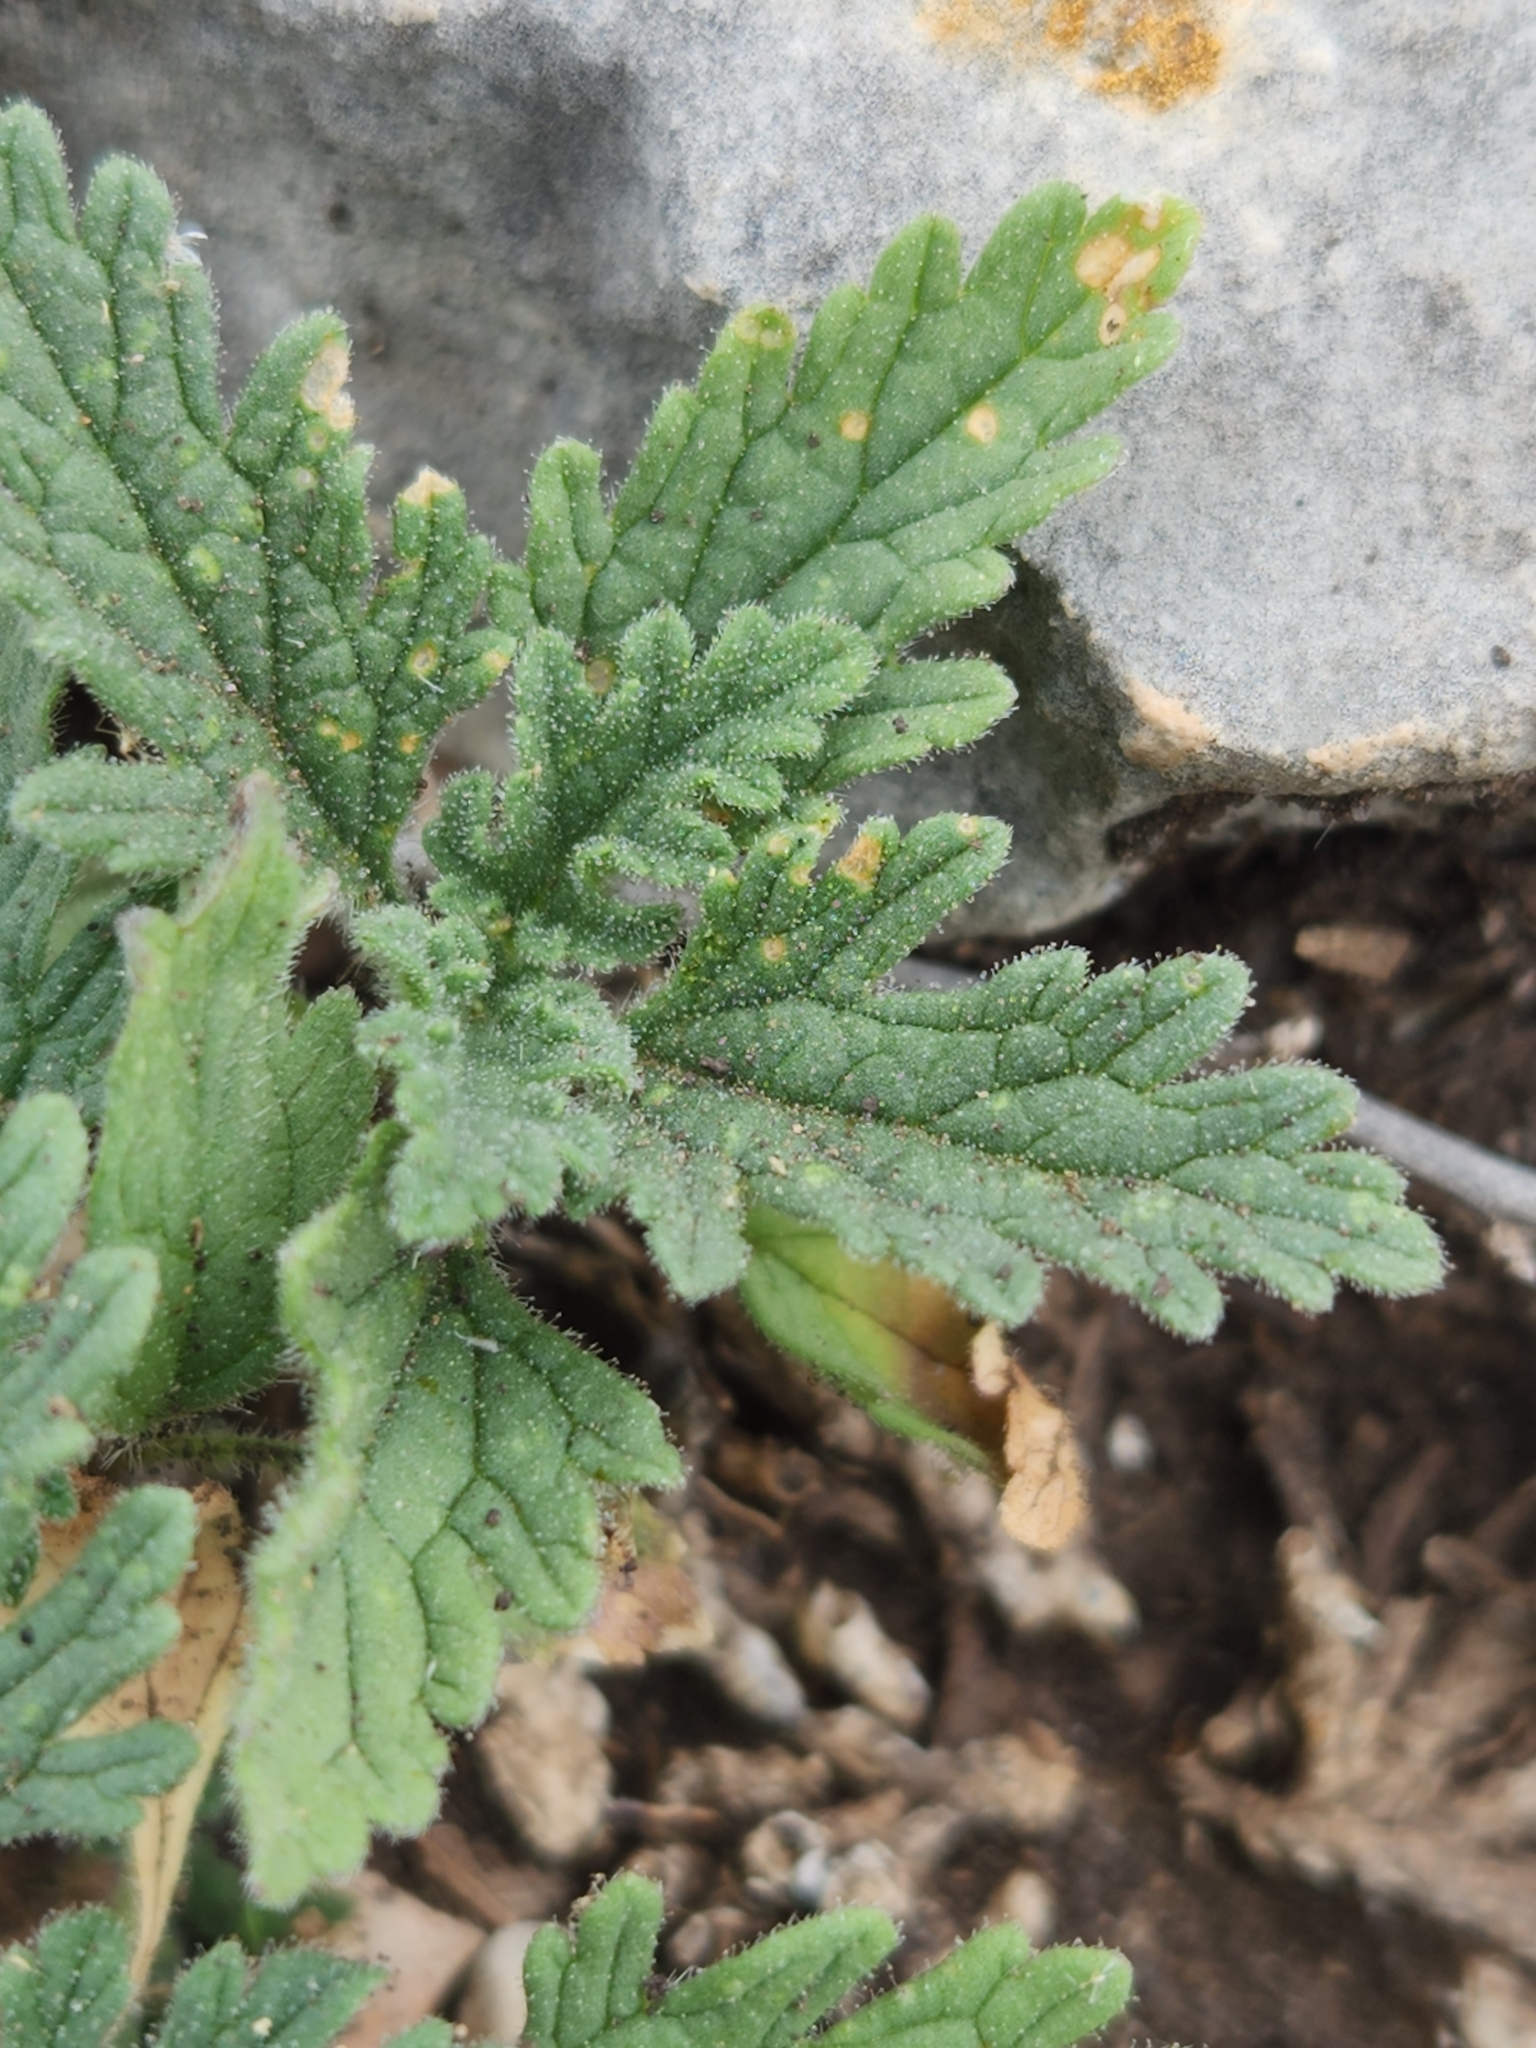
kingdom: Plantae
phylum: Tracheophyta
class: Magnoliopsida
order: Lamiales
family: Verbenaceae
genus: Verbena
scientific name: Verbena pumila
